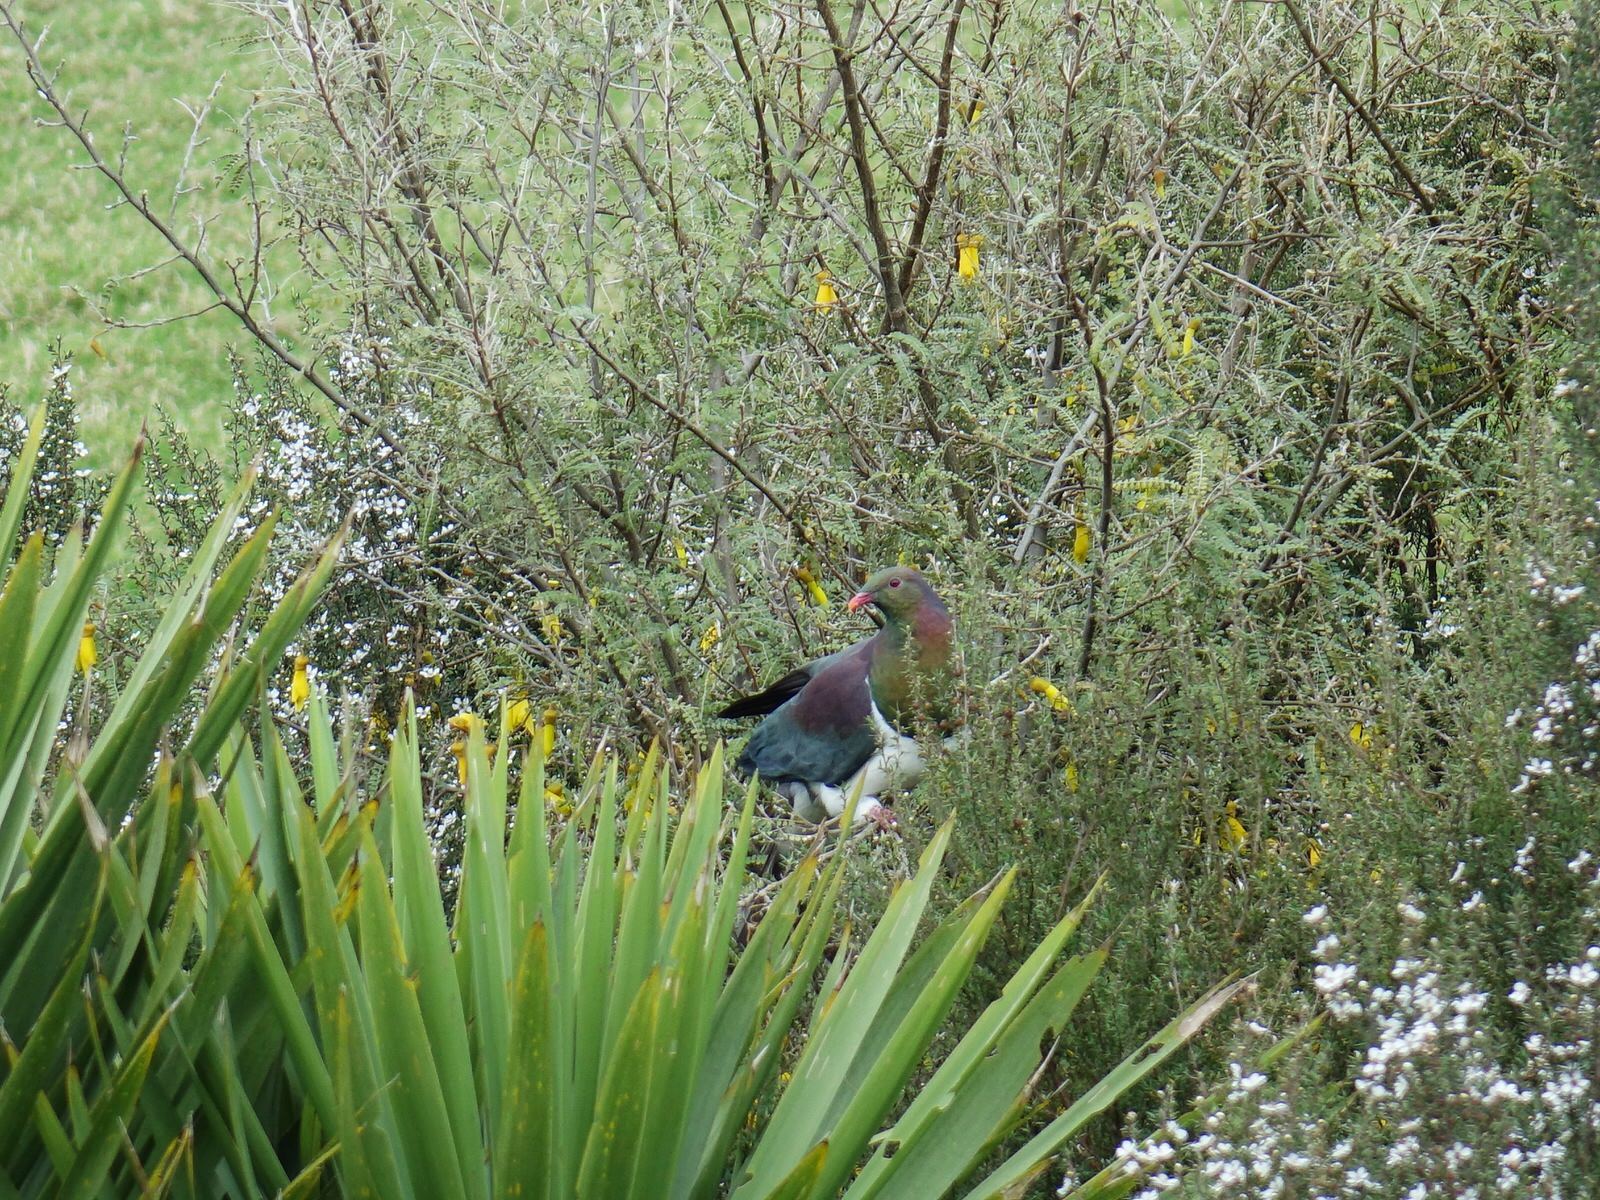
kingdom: Animalia
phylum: Chordata
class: Aves
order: Columbiformes
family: Columbidae
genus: Hemiphaga
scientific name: Hemiphaga novaeseelandiae
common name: New zealand pigeon
